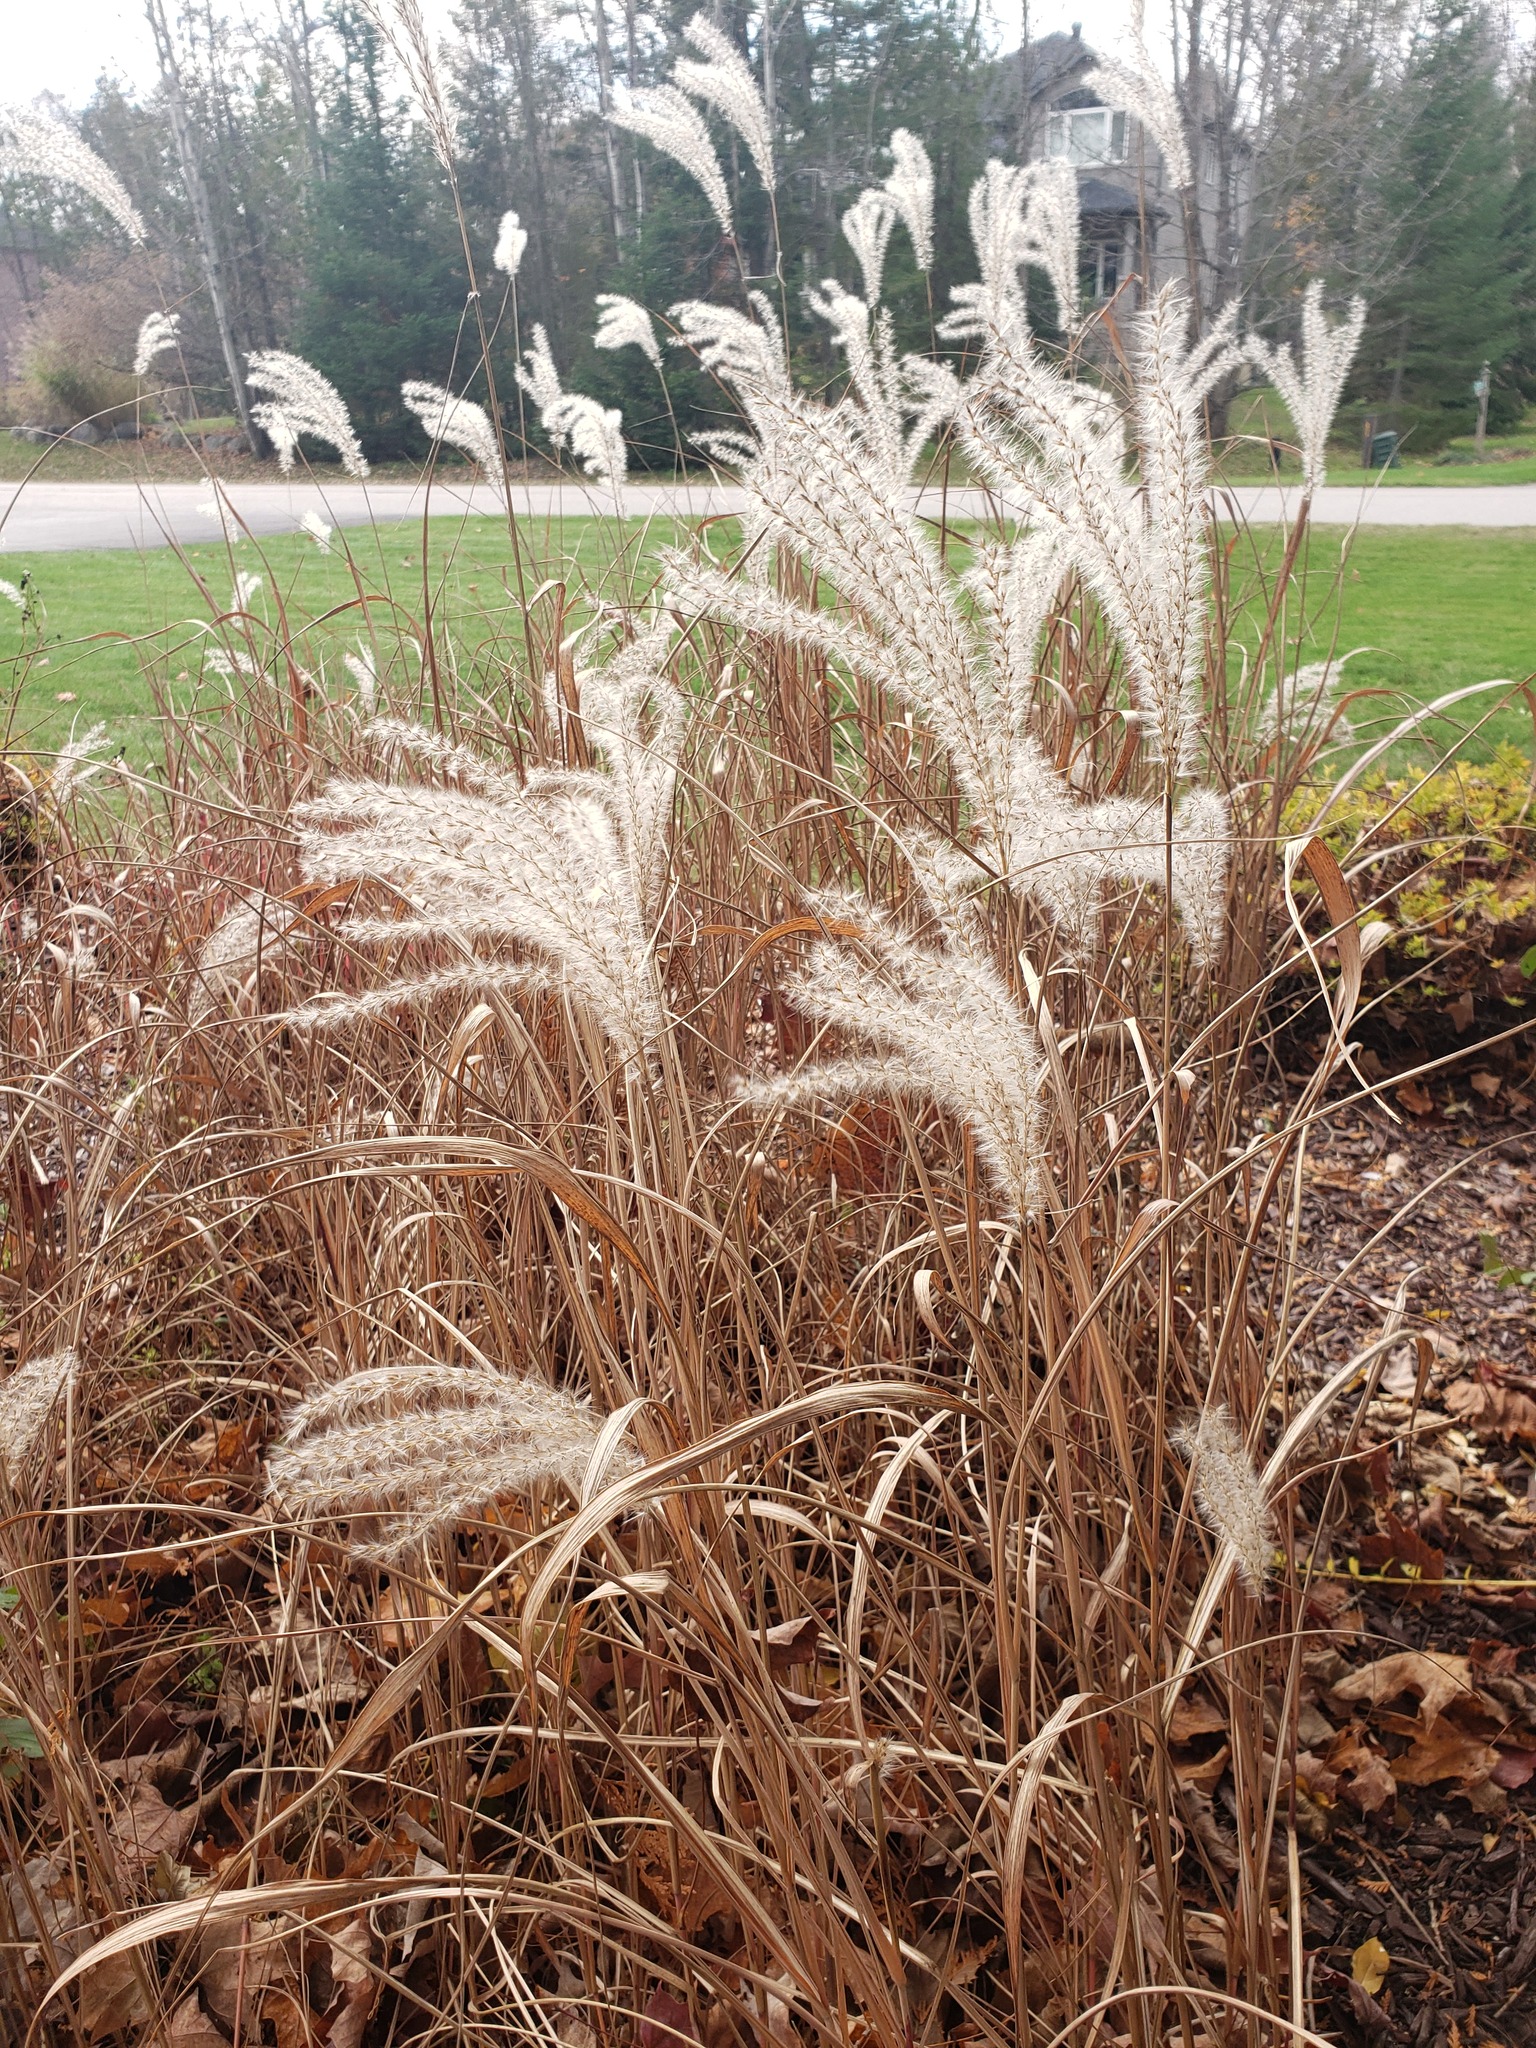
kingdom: Plantae
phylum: Tracheophyta
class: Liliopsida
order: Poales
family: Poaceae
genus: Miscanthus
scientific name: Miscanthus sacchariflorus
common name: Amur silver grass
